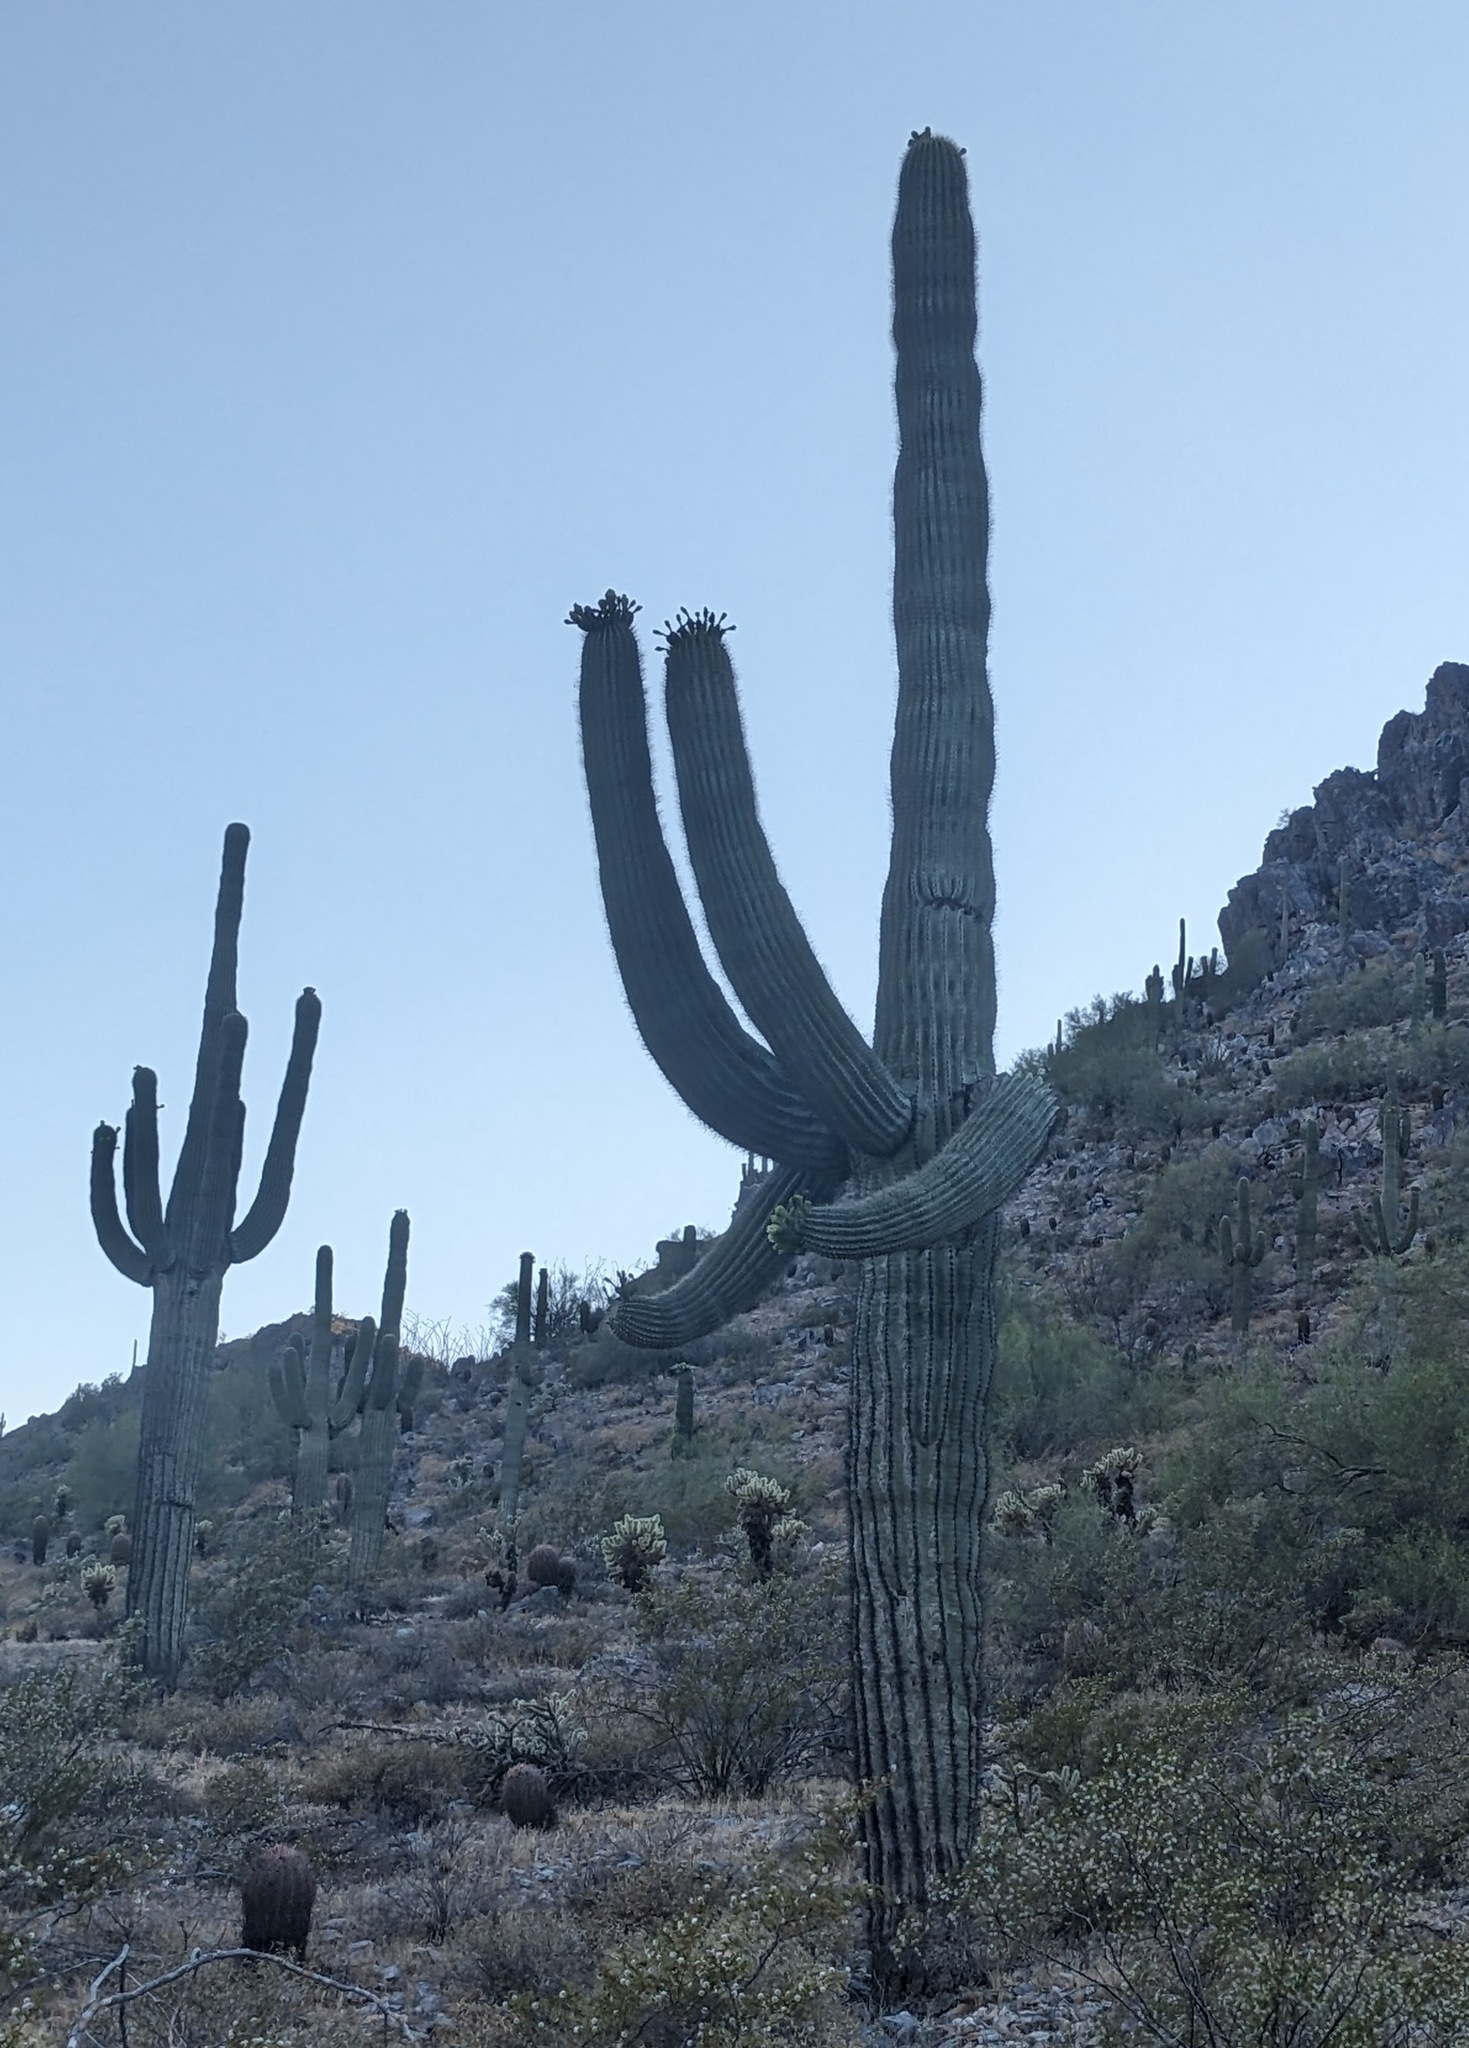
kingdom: Plantae
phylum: Tracheophyta
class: Magnoliopsida
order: Caryophyllales
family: Cactaceae
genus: Carnegiea
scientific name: Carnegiea gigantea
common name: Saguaro
